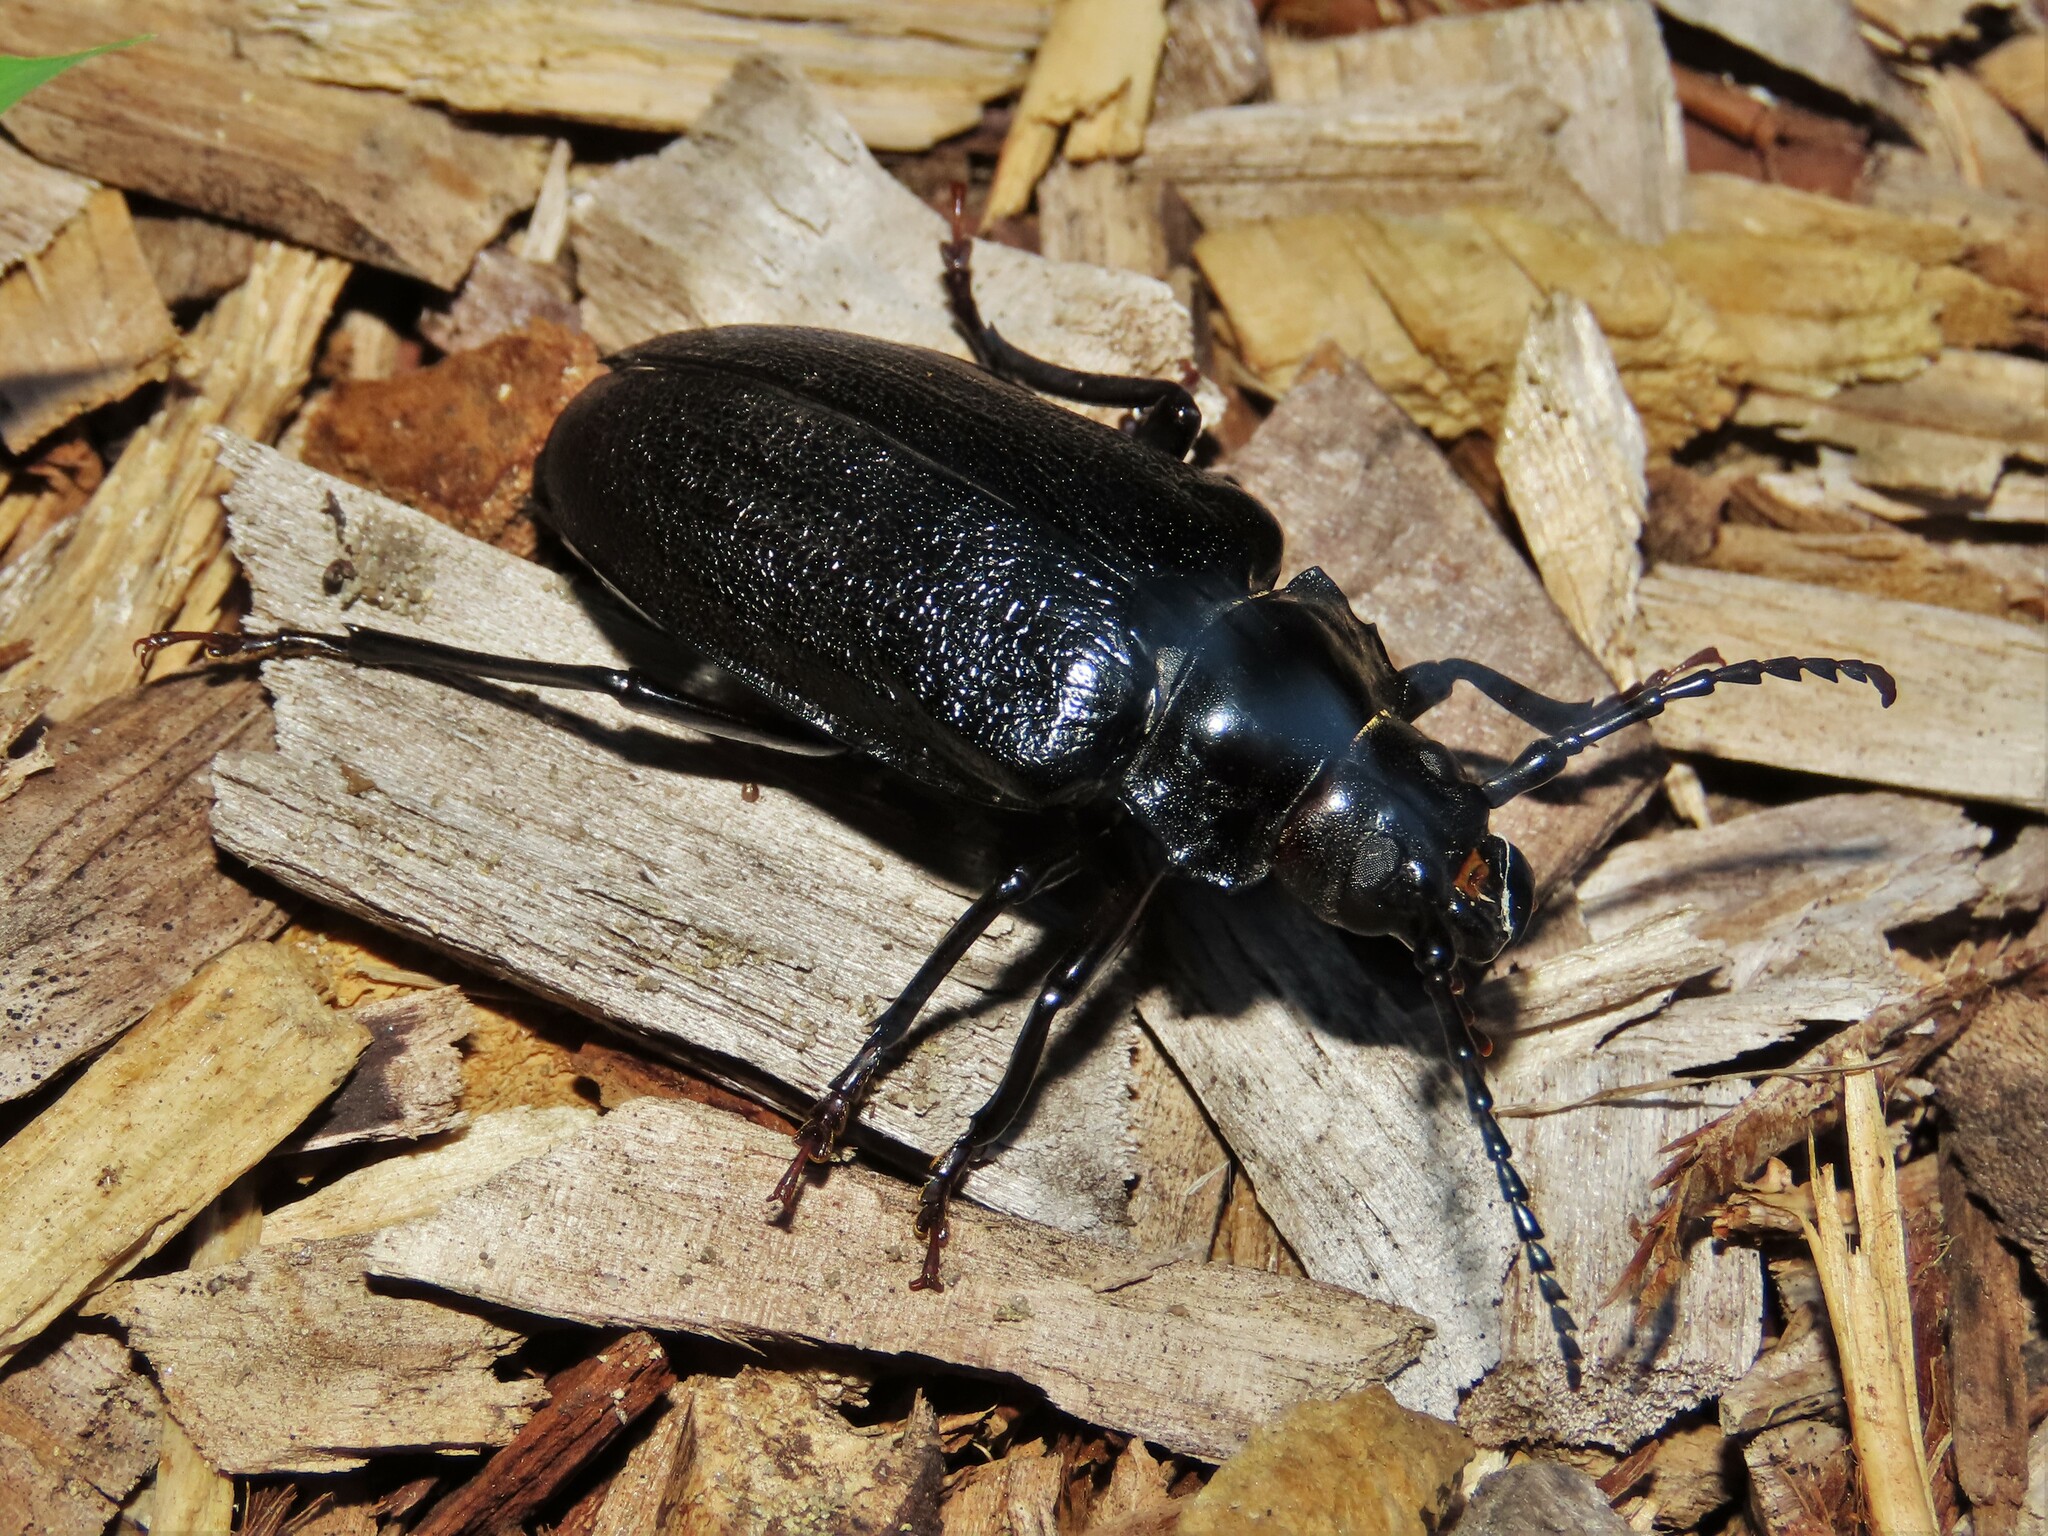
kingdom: Animalia
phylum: Arthropoda
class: Insecta
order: Coleoptera
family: Cerambycidae
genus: Prionus
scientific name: Prionus laticollis
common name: Broad necked prionus
